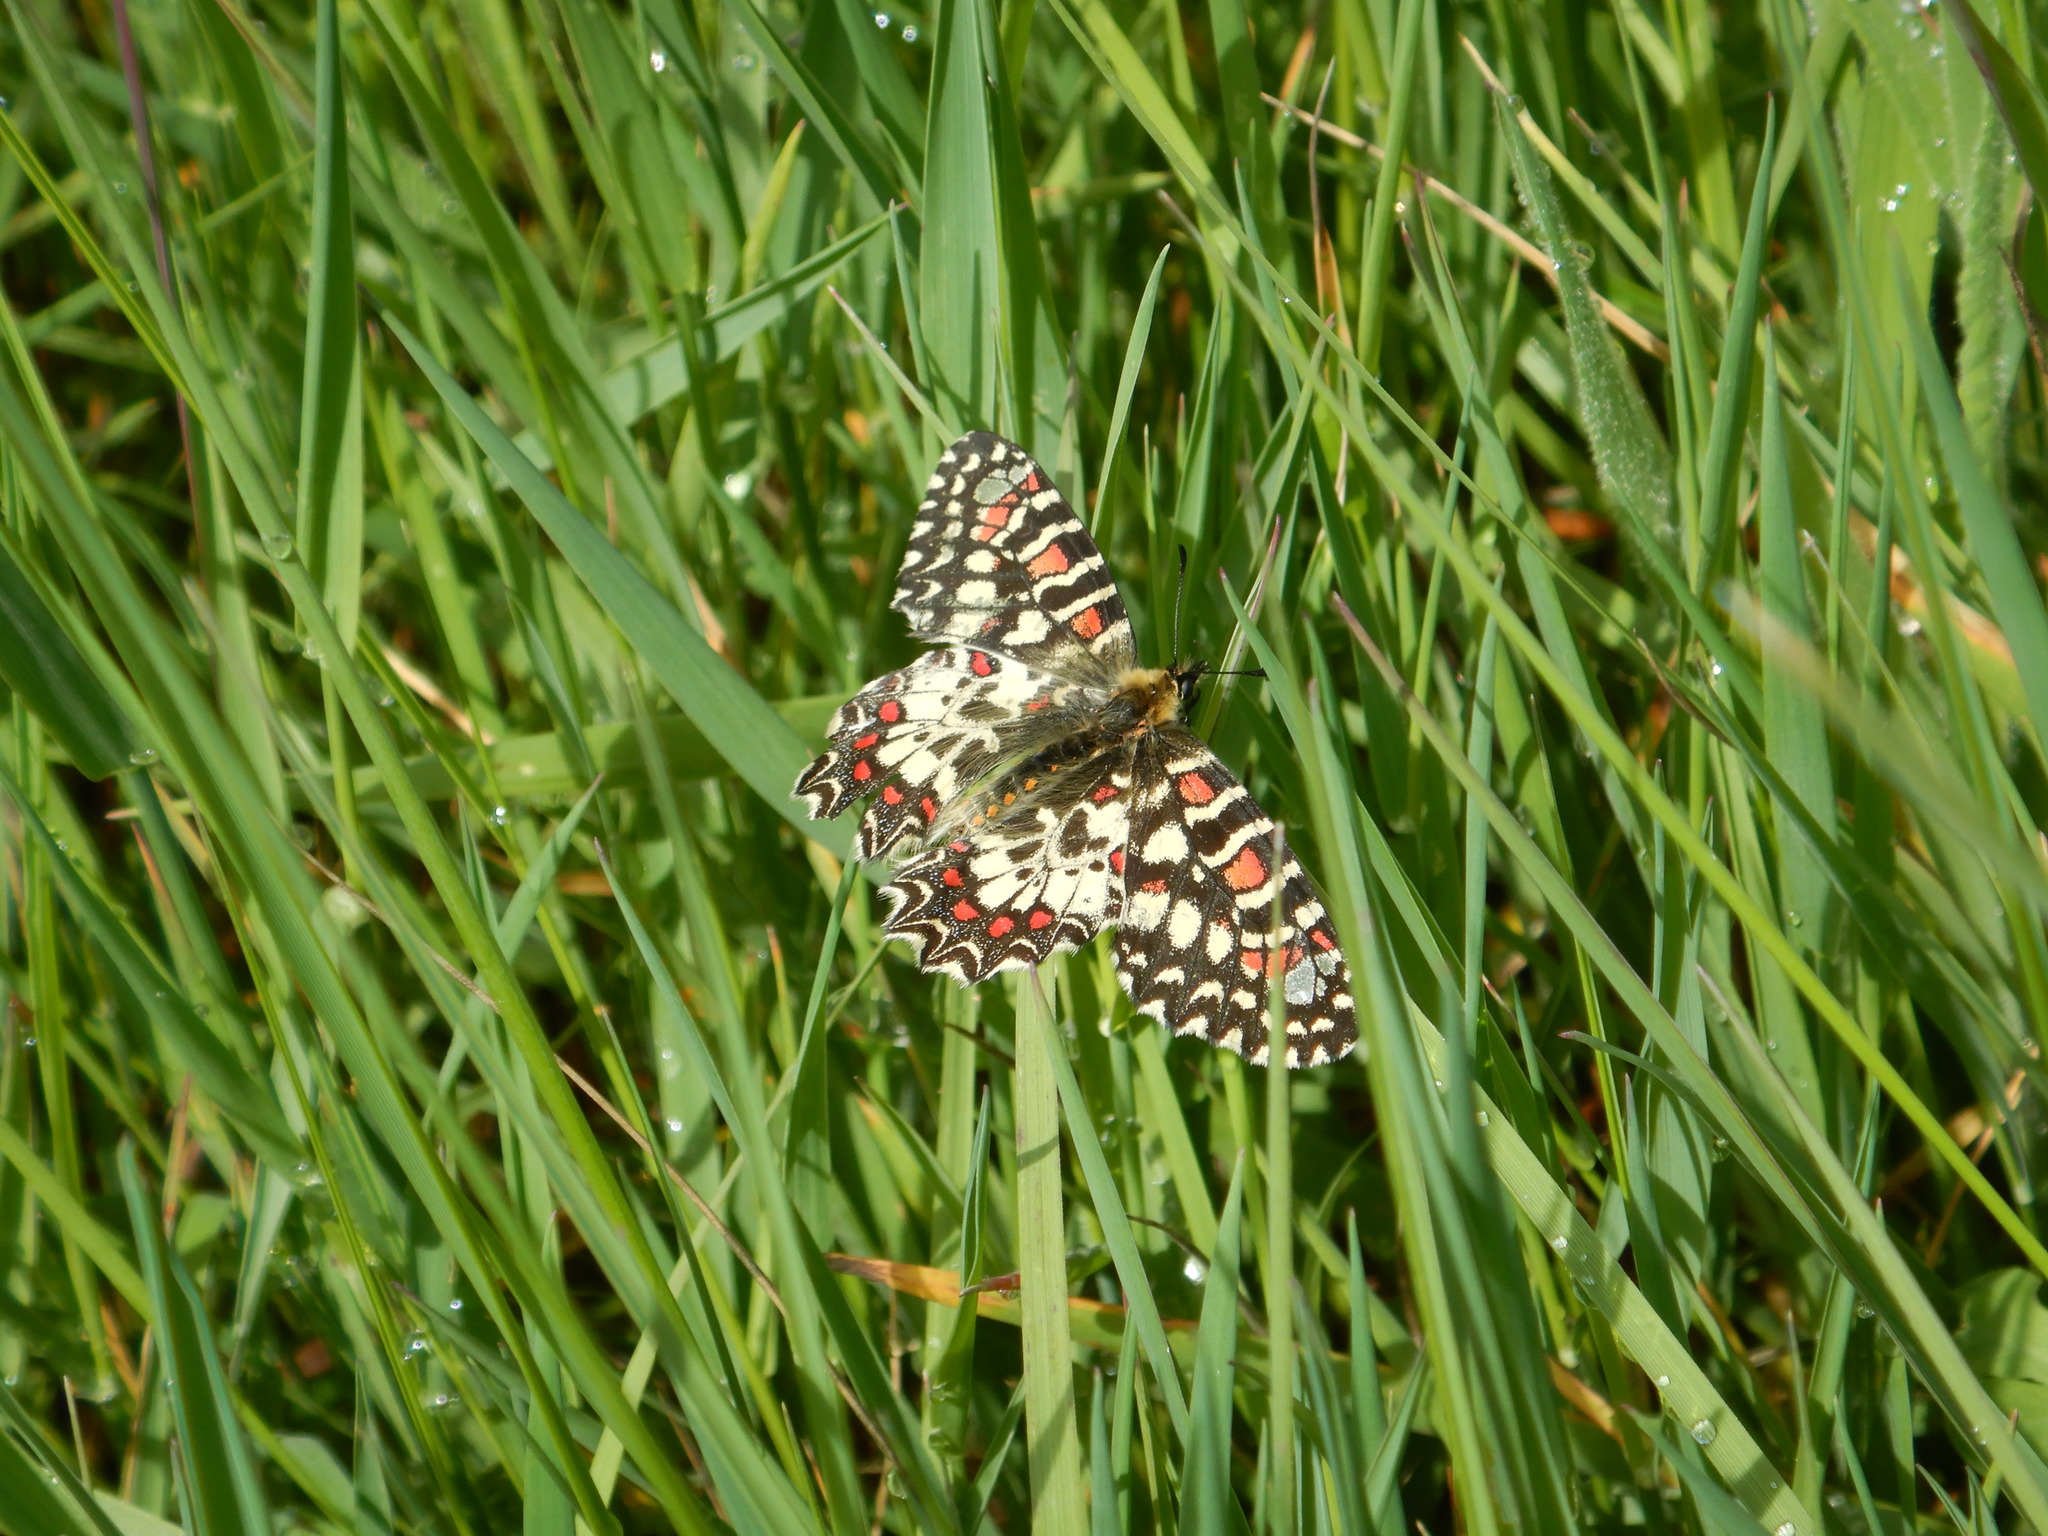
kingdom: Animalia
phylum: Arthropoda
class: Insecta
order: Lepidoptera
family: Papilionidae
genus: Zerynthia
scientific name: Zerynthia rumina
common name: Spanish festoon
